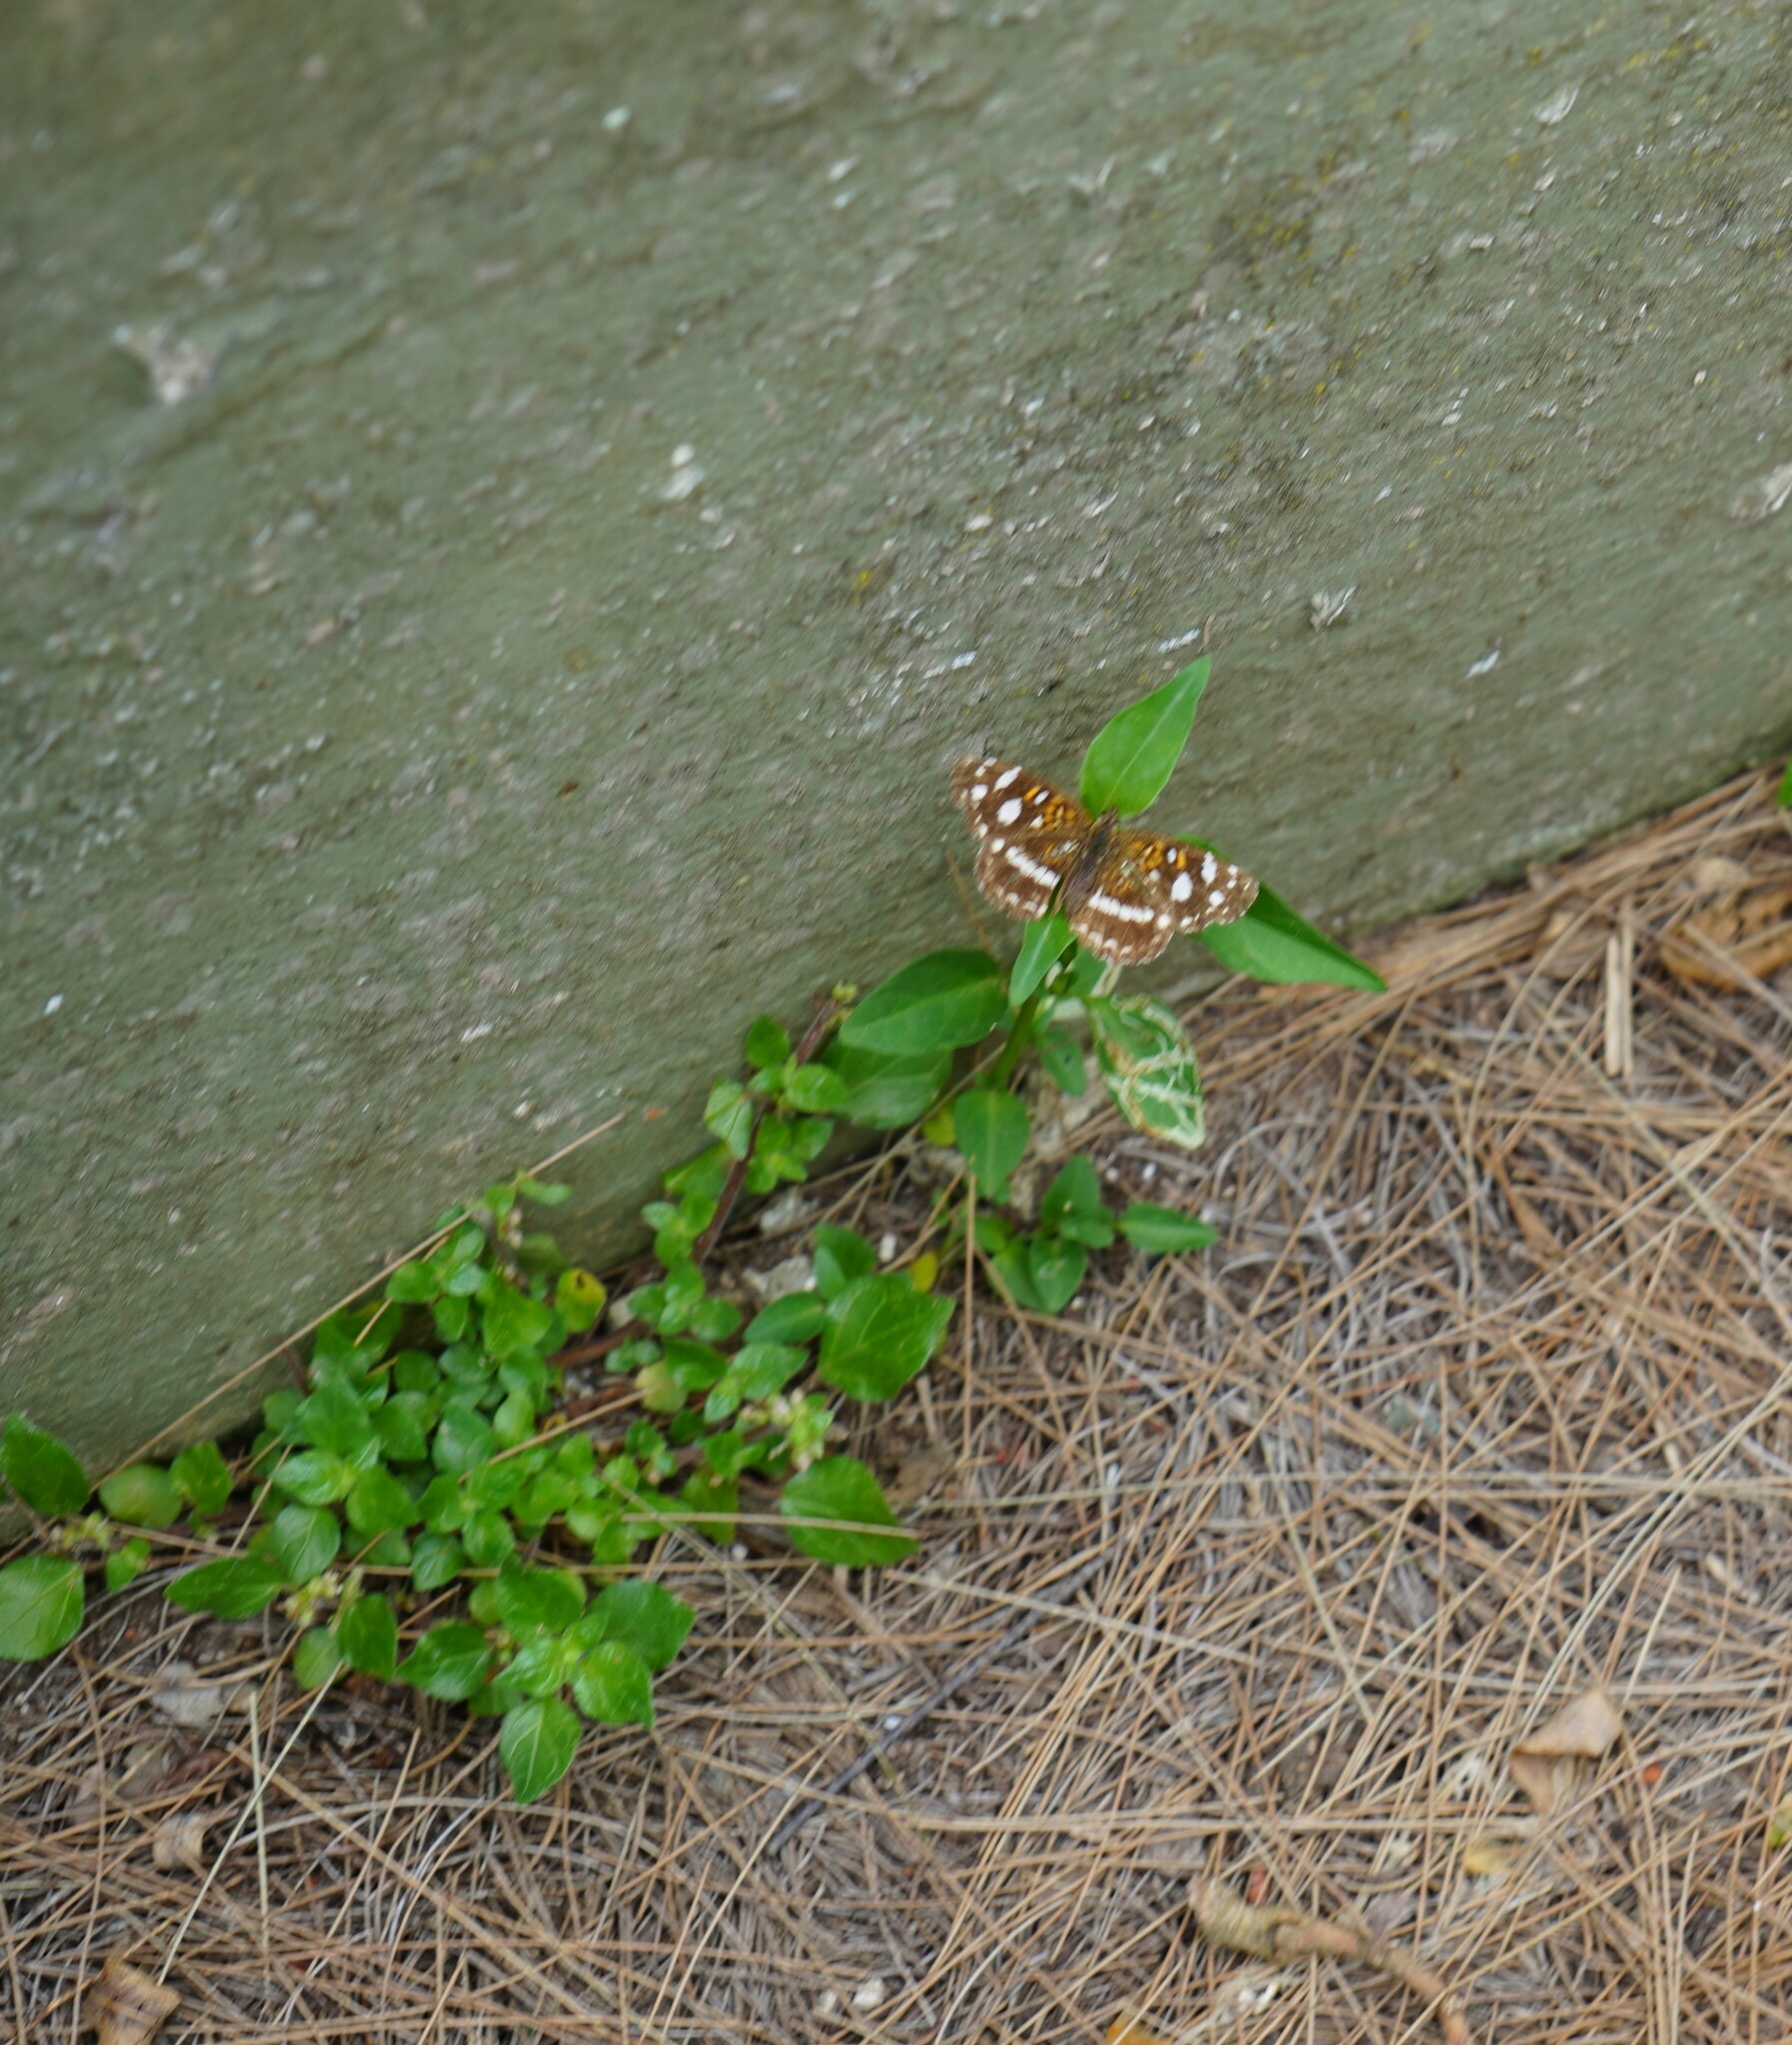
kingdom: Animalia
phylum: Arthropoda
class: Insecta
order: Lepidoptera
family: Nymphalidae
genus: Ortilia
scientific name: Ortilia ithra
